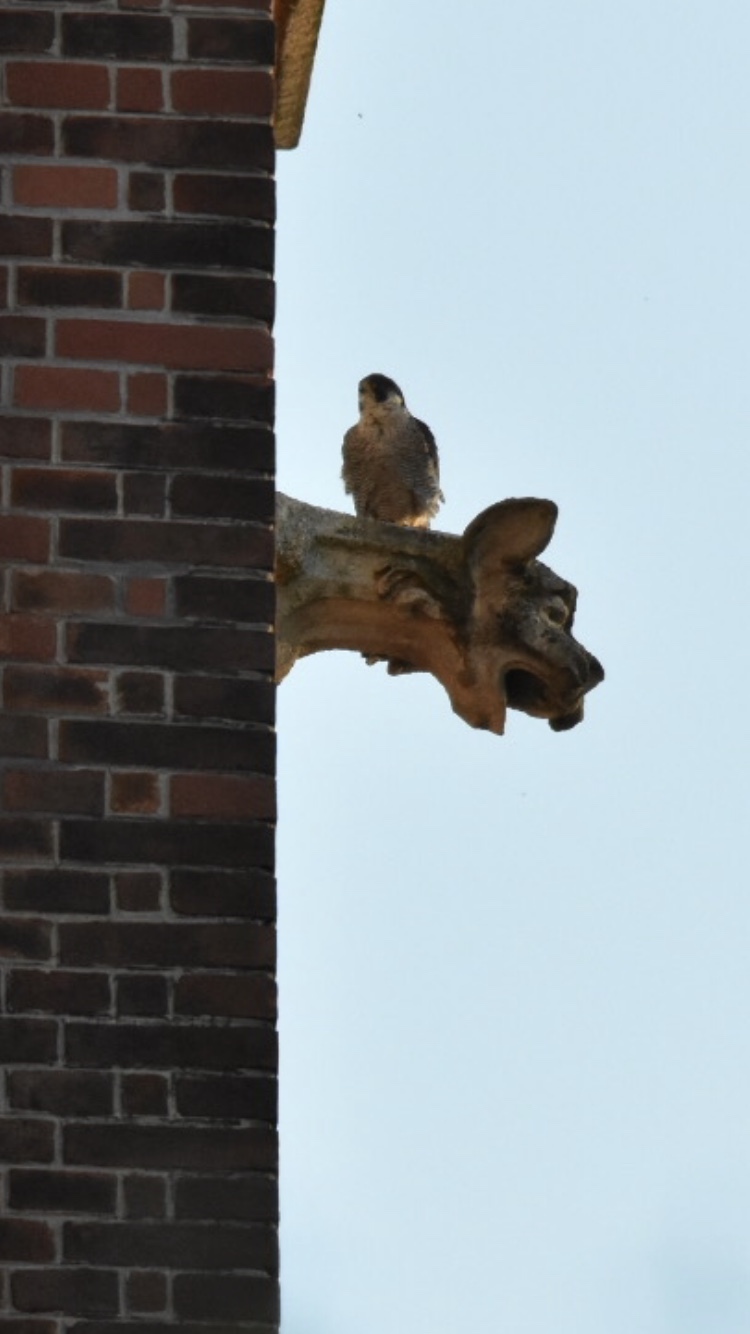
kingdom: Animalia
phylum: Chordata
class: Aves
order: Falconiformes
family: Falconidae
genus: Falco
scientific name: Falco peregrinus
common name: Peregrine falcon
